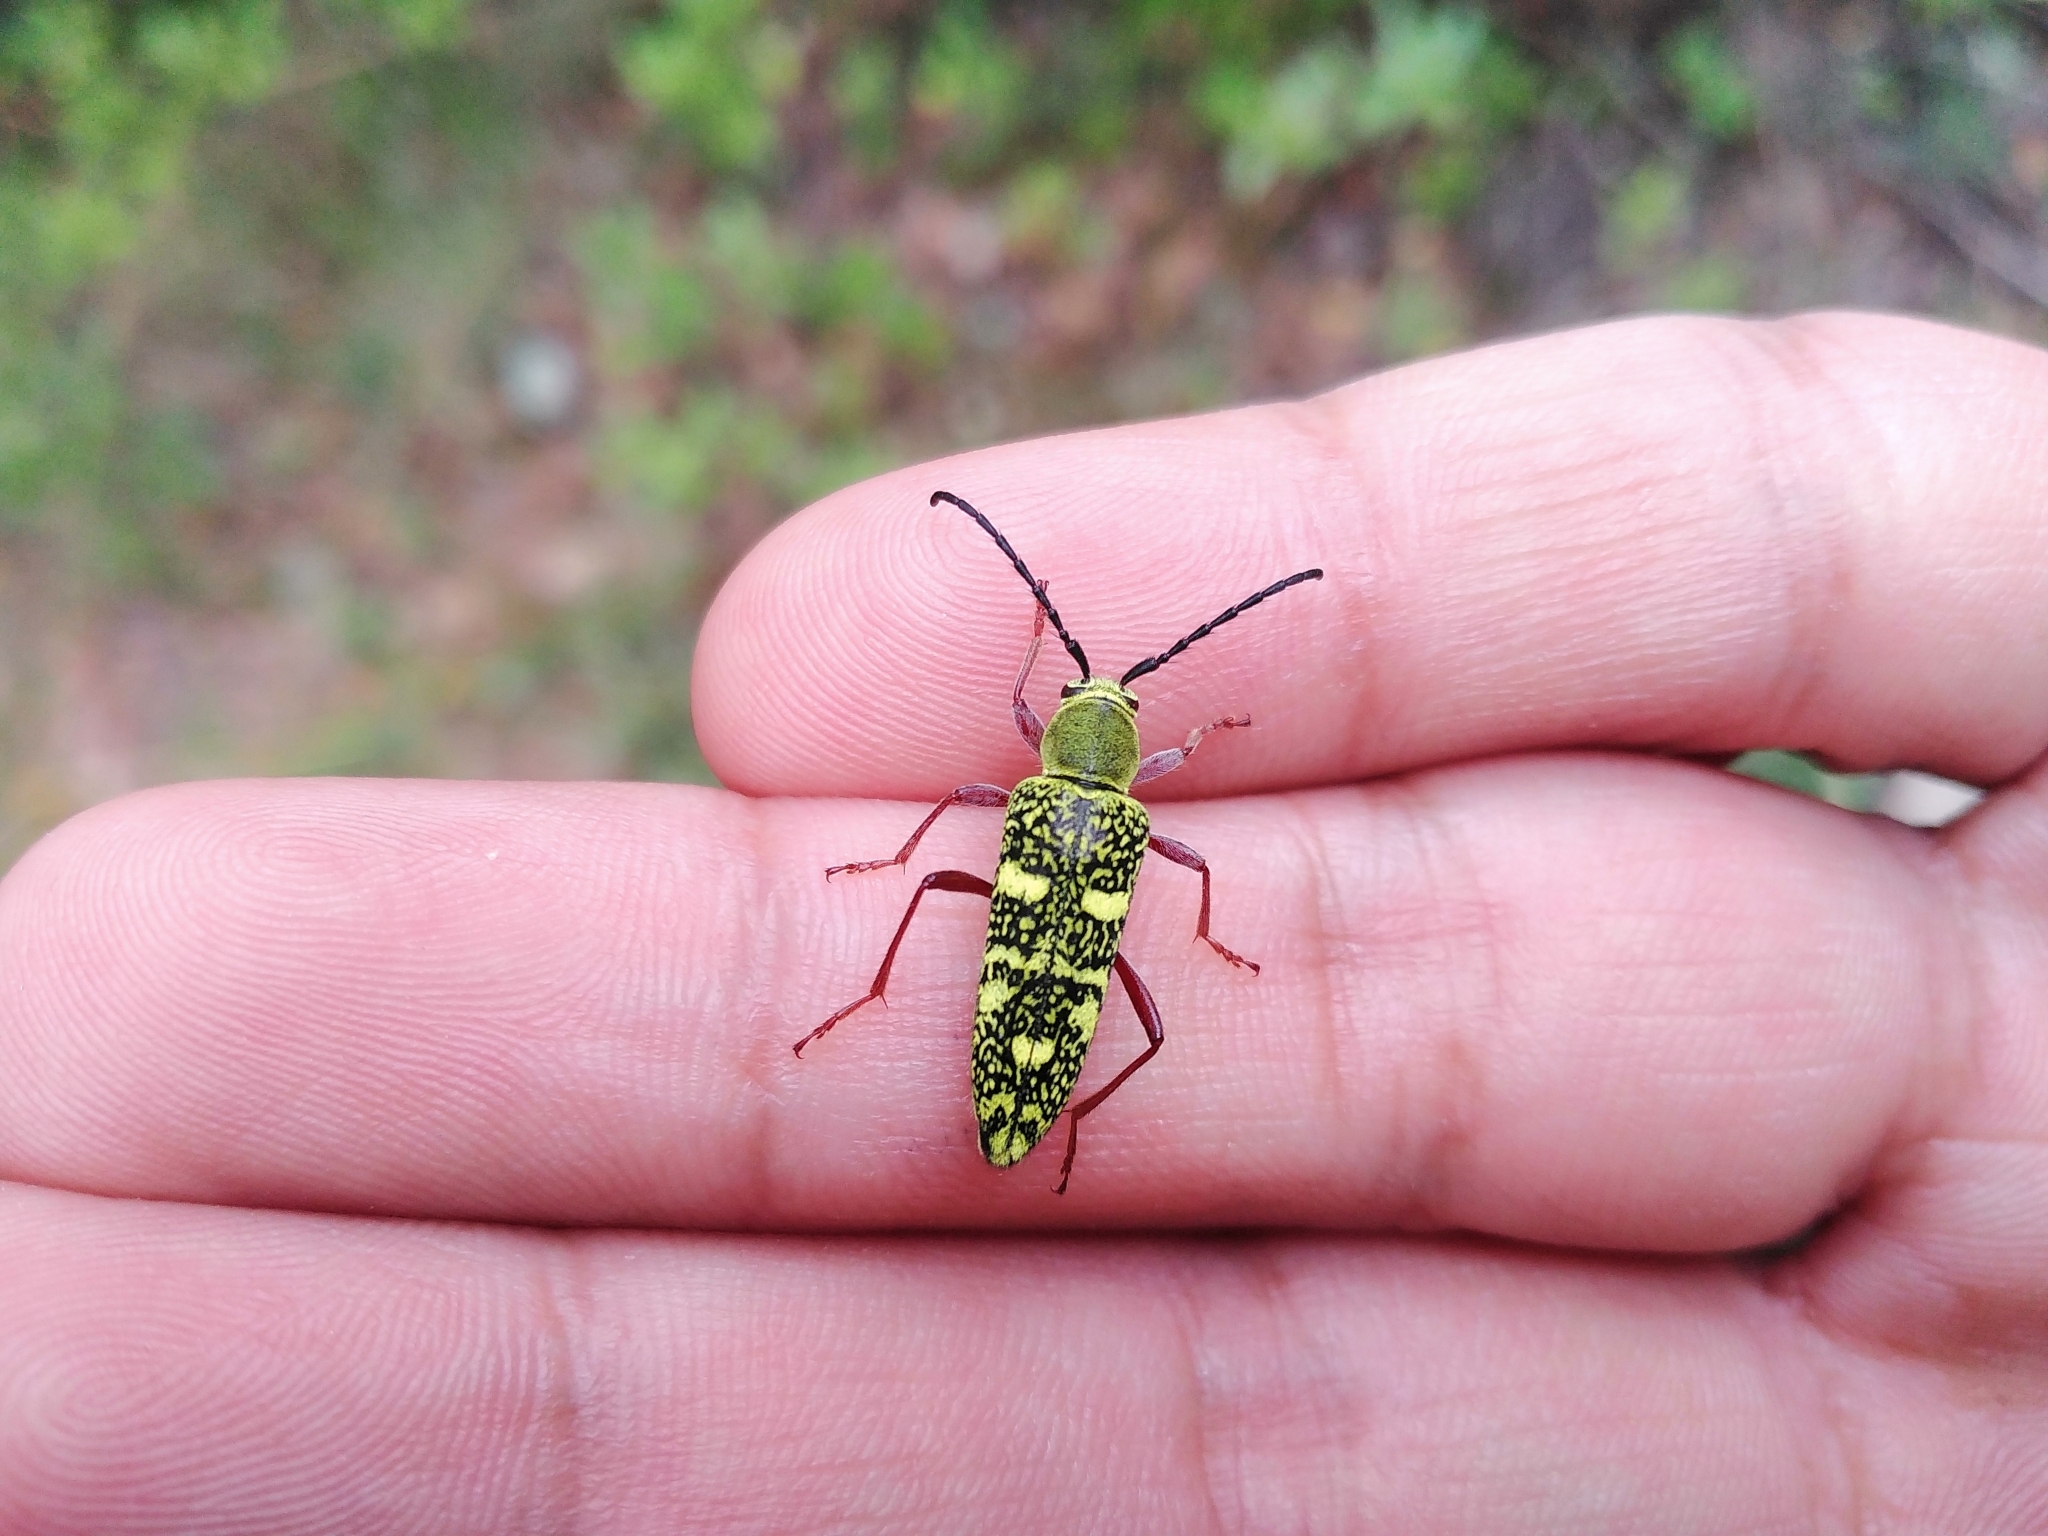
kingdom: Animalia
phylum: Arthropoda
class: Insecta
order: Coleoptera
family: Cerambycidae
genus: Ochraethes
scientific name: Ochraethes
